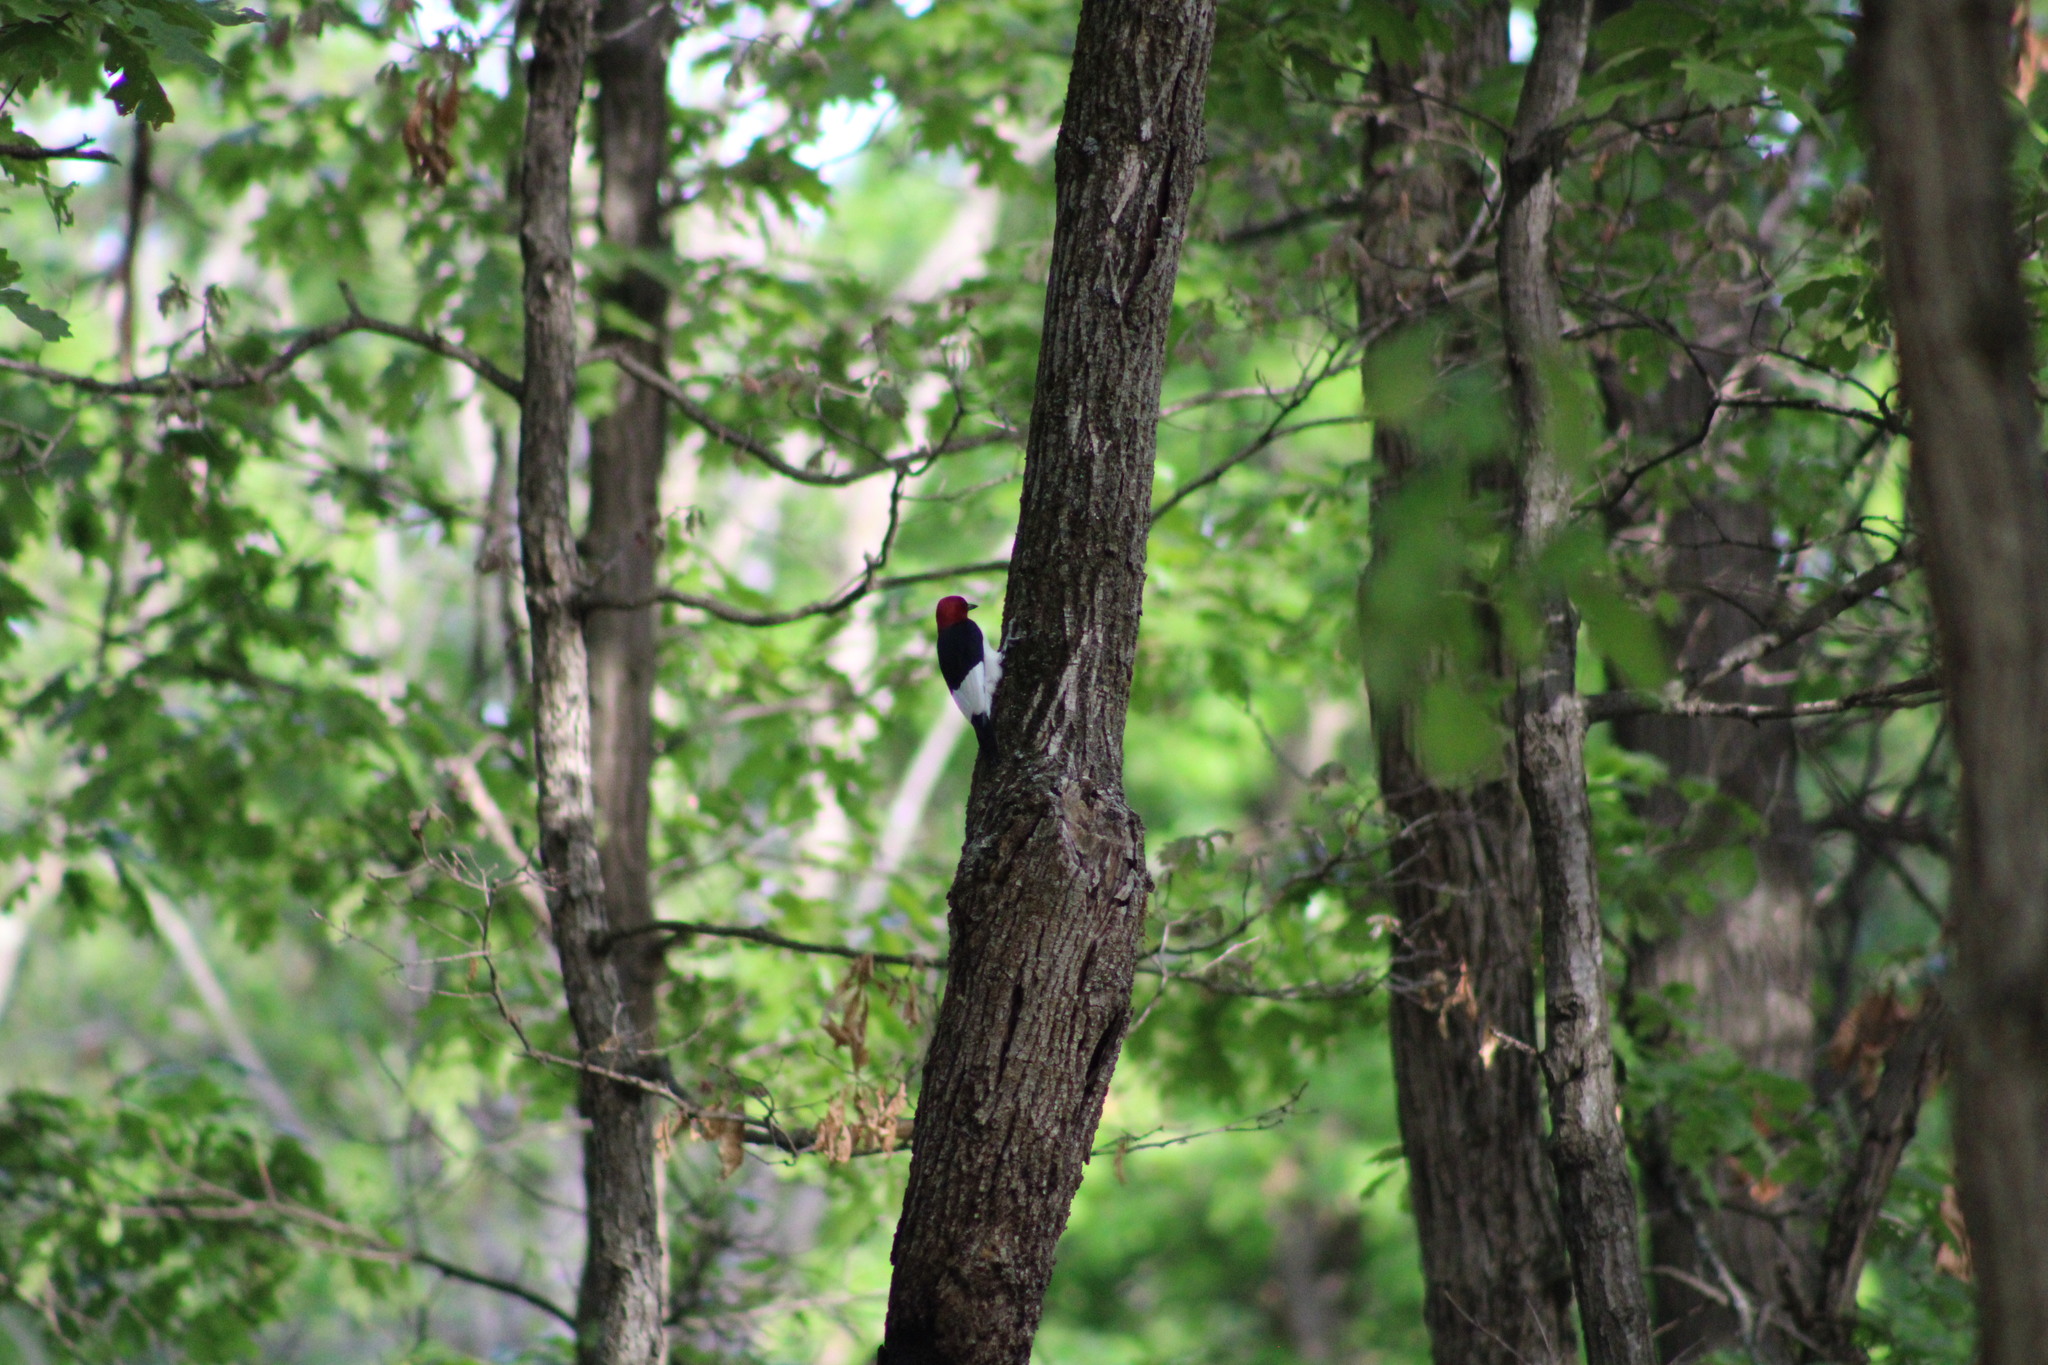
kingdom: Animalia
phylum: Chordata
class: Aves
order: Piciformes
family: Picidae
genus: Melanerpes
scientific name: Melanerpes erythrocephalus
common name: Red-headed woodpecker
